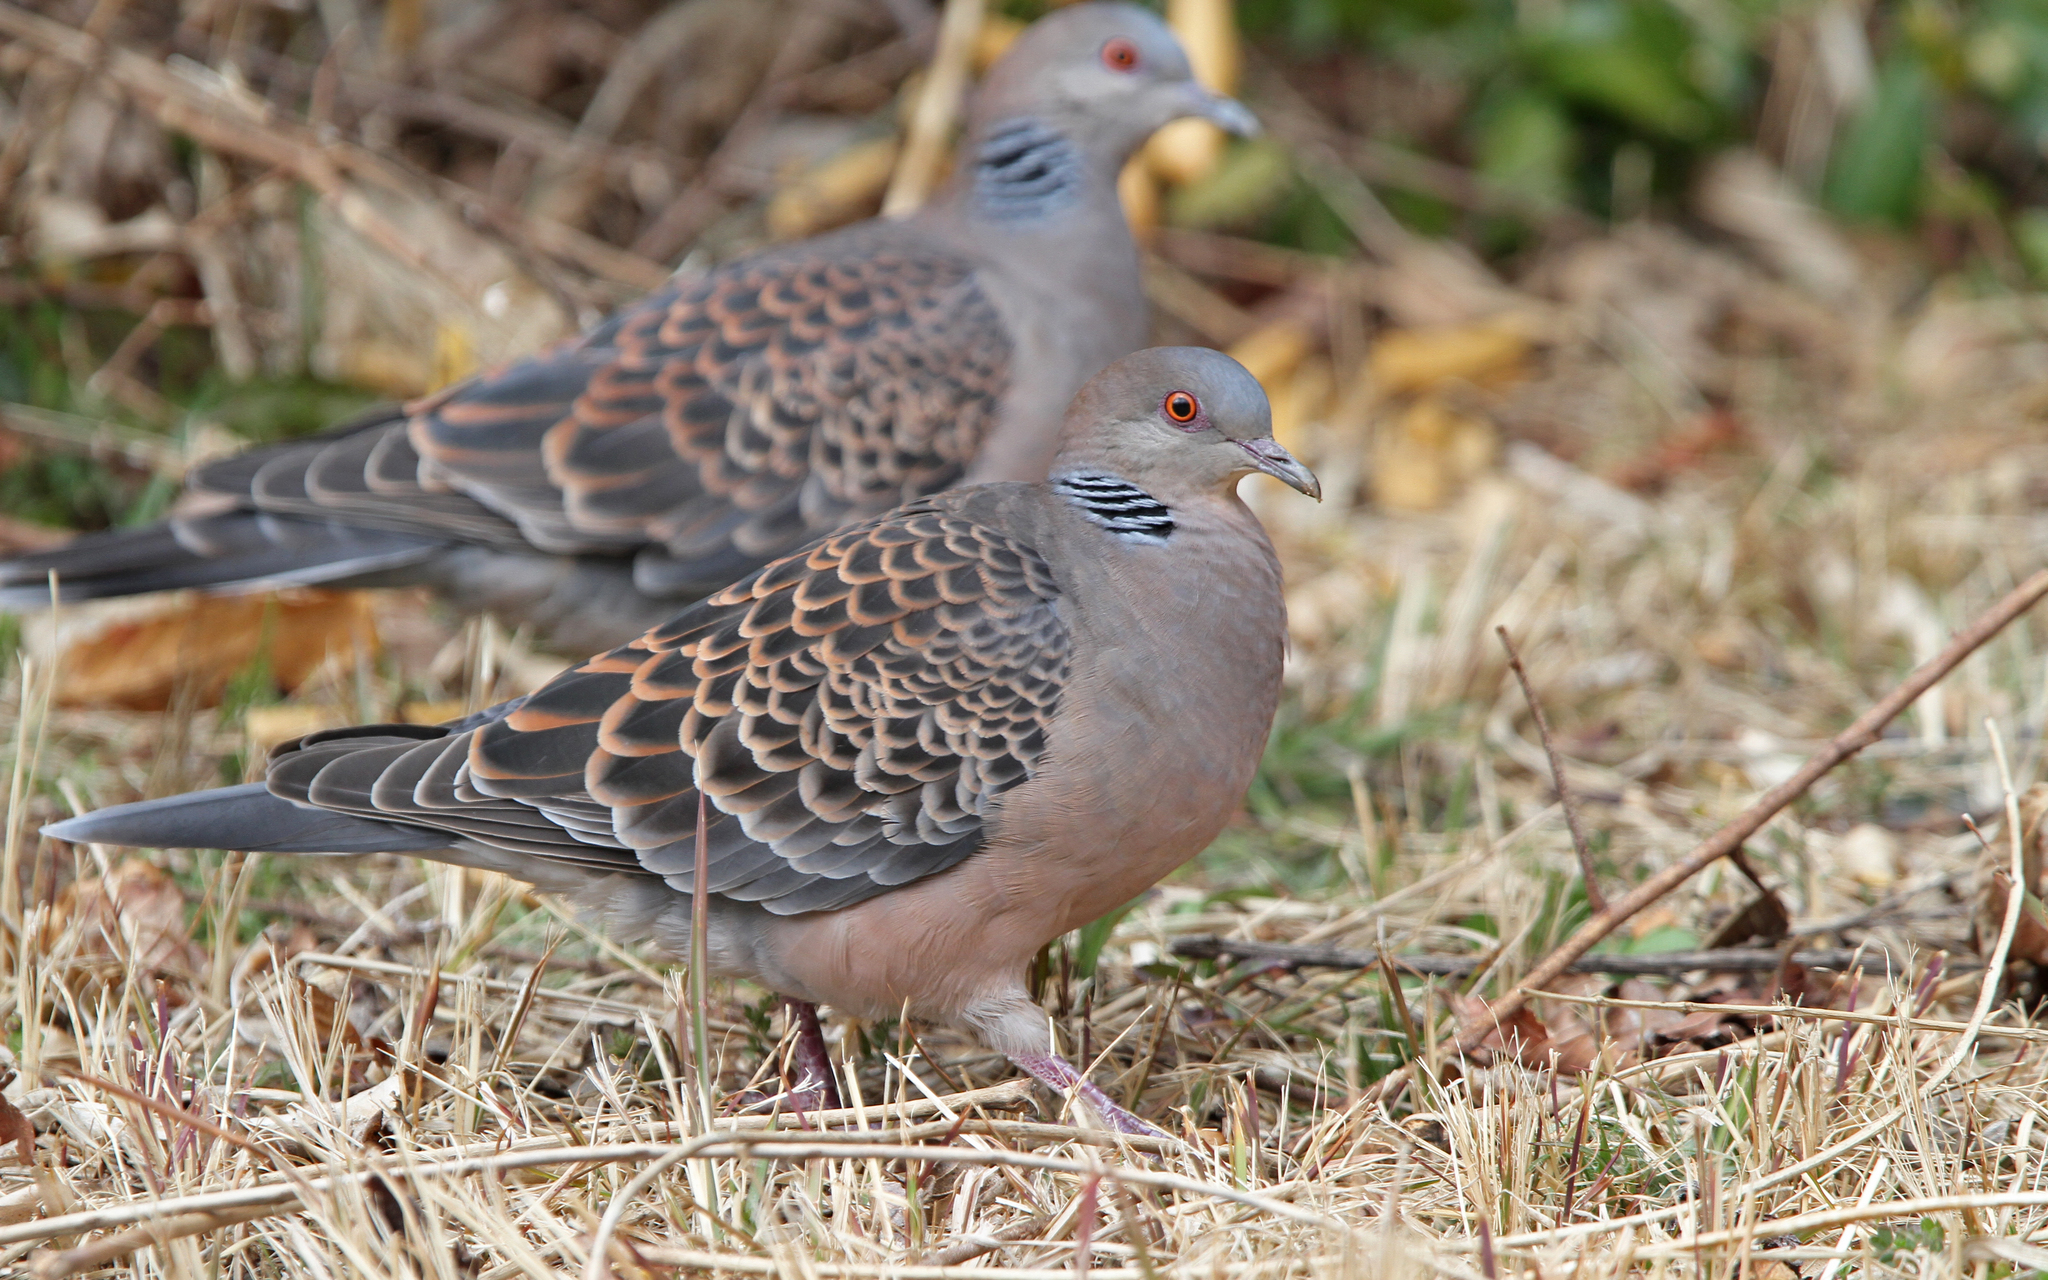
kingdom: Animalia
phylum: Chordata
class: Aves
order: Columbiformes
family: Columbidae
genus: Streptopelia
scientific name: Streptopelia orientalis
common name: Oriental turtle dove
